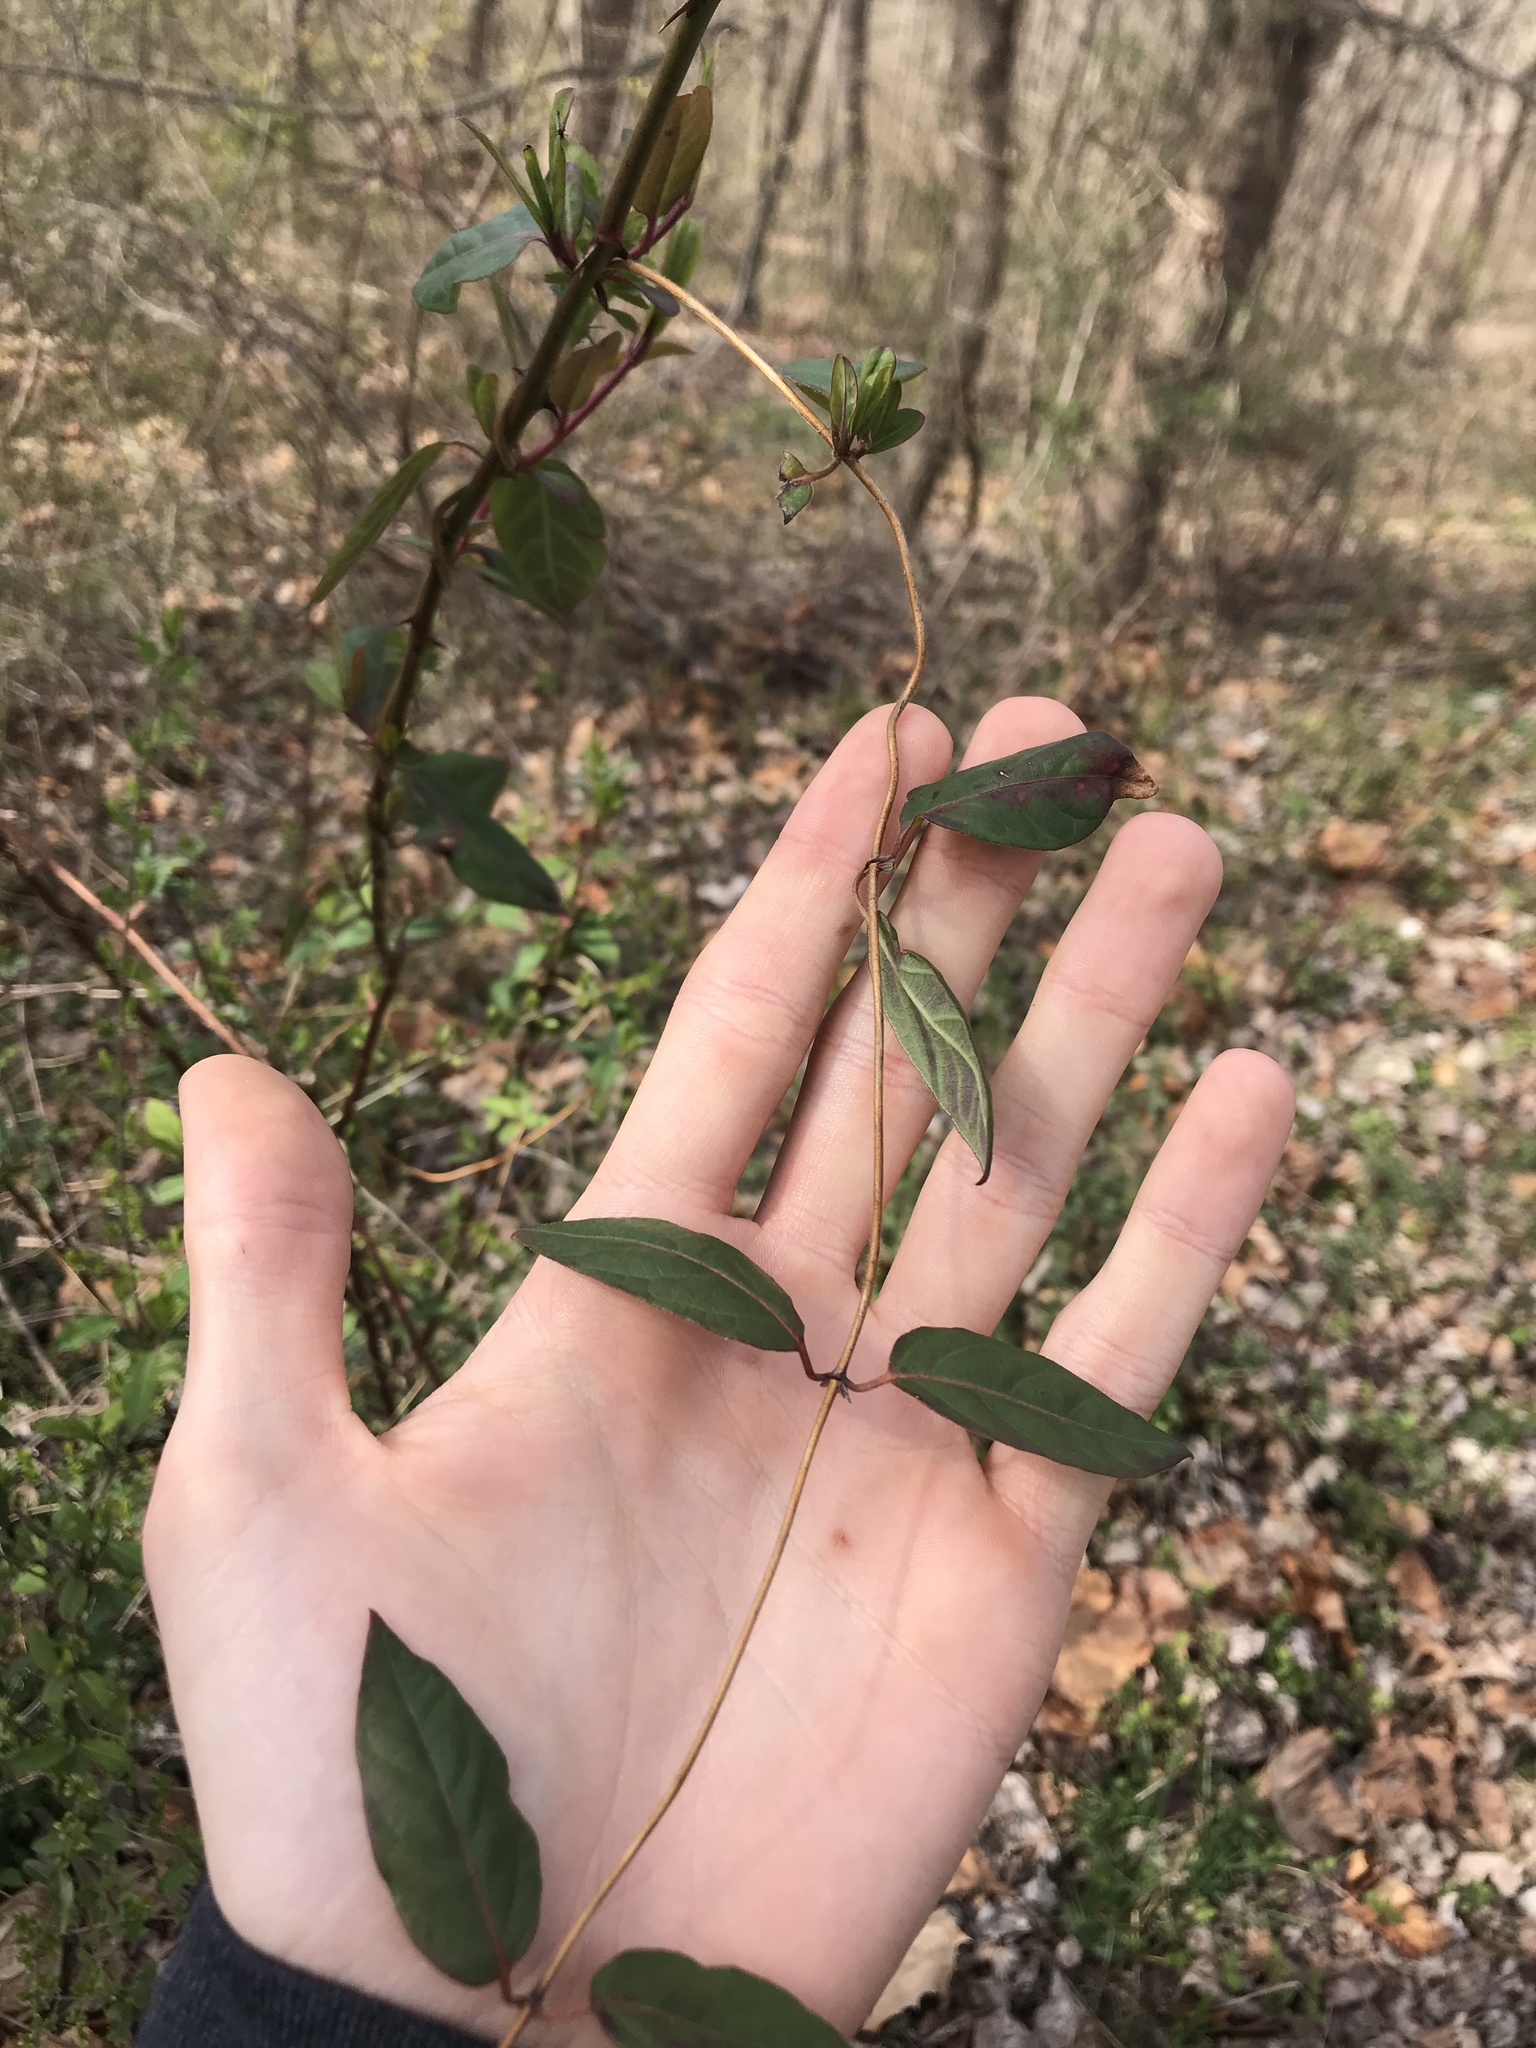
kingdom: Plantae
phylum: Tracheophyta
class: Magnoliopsida
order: Dipsacales
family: Caprifoliaceae
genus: Lonicera
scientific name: Lonicera japonica
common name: Japanese honeysuckle
